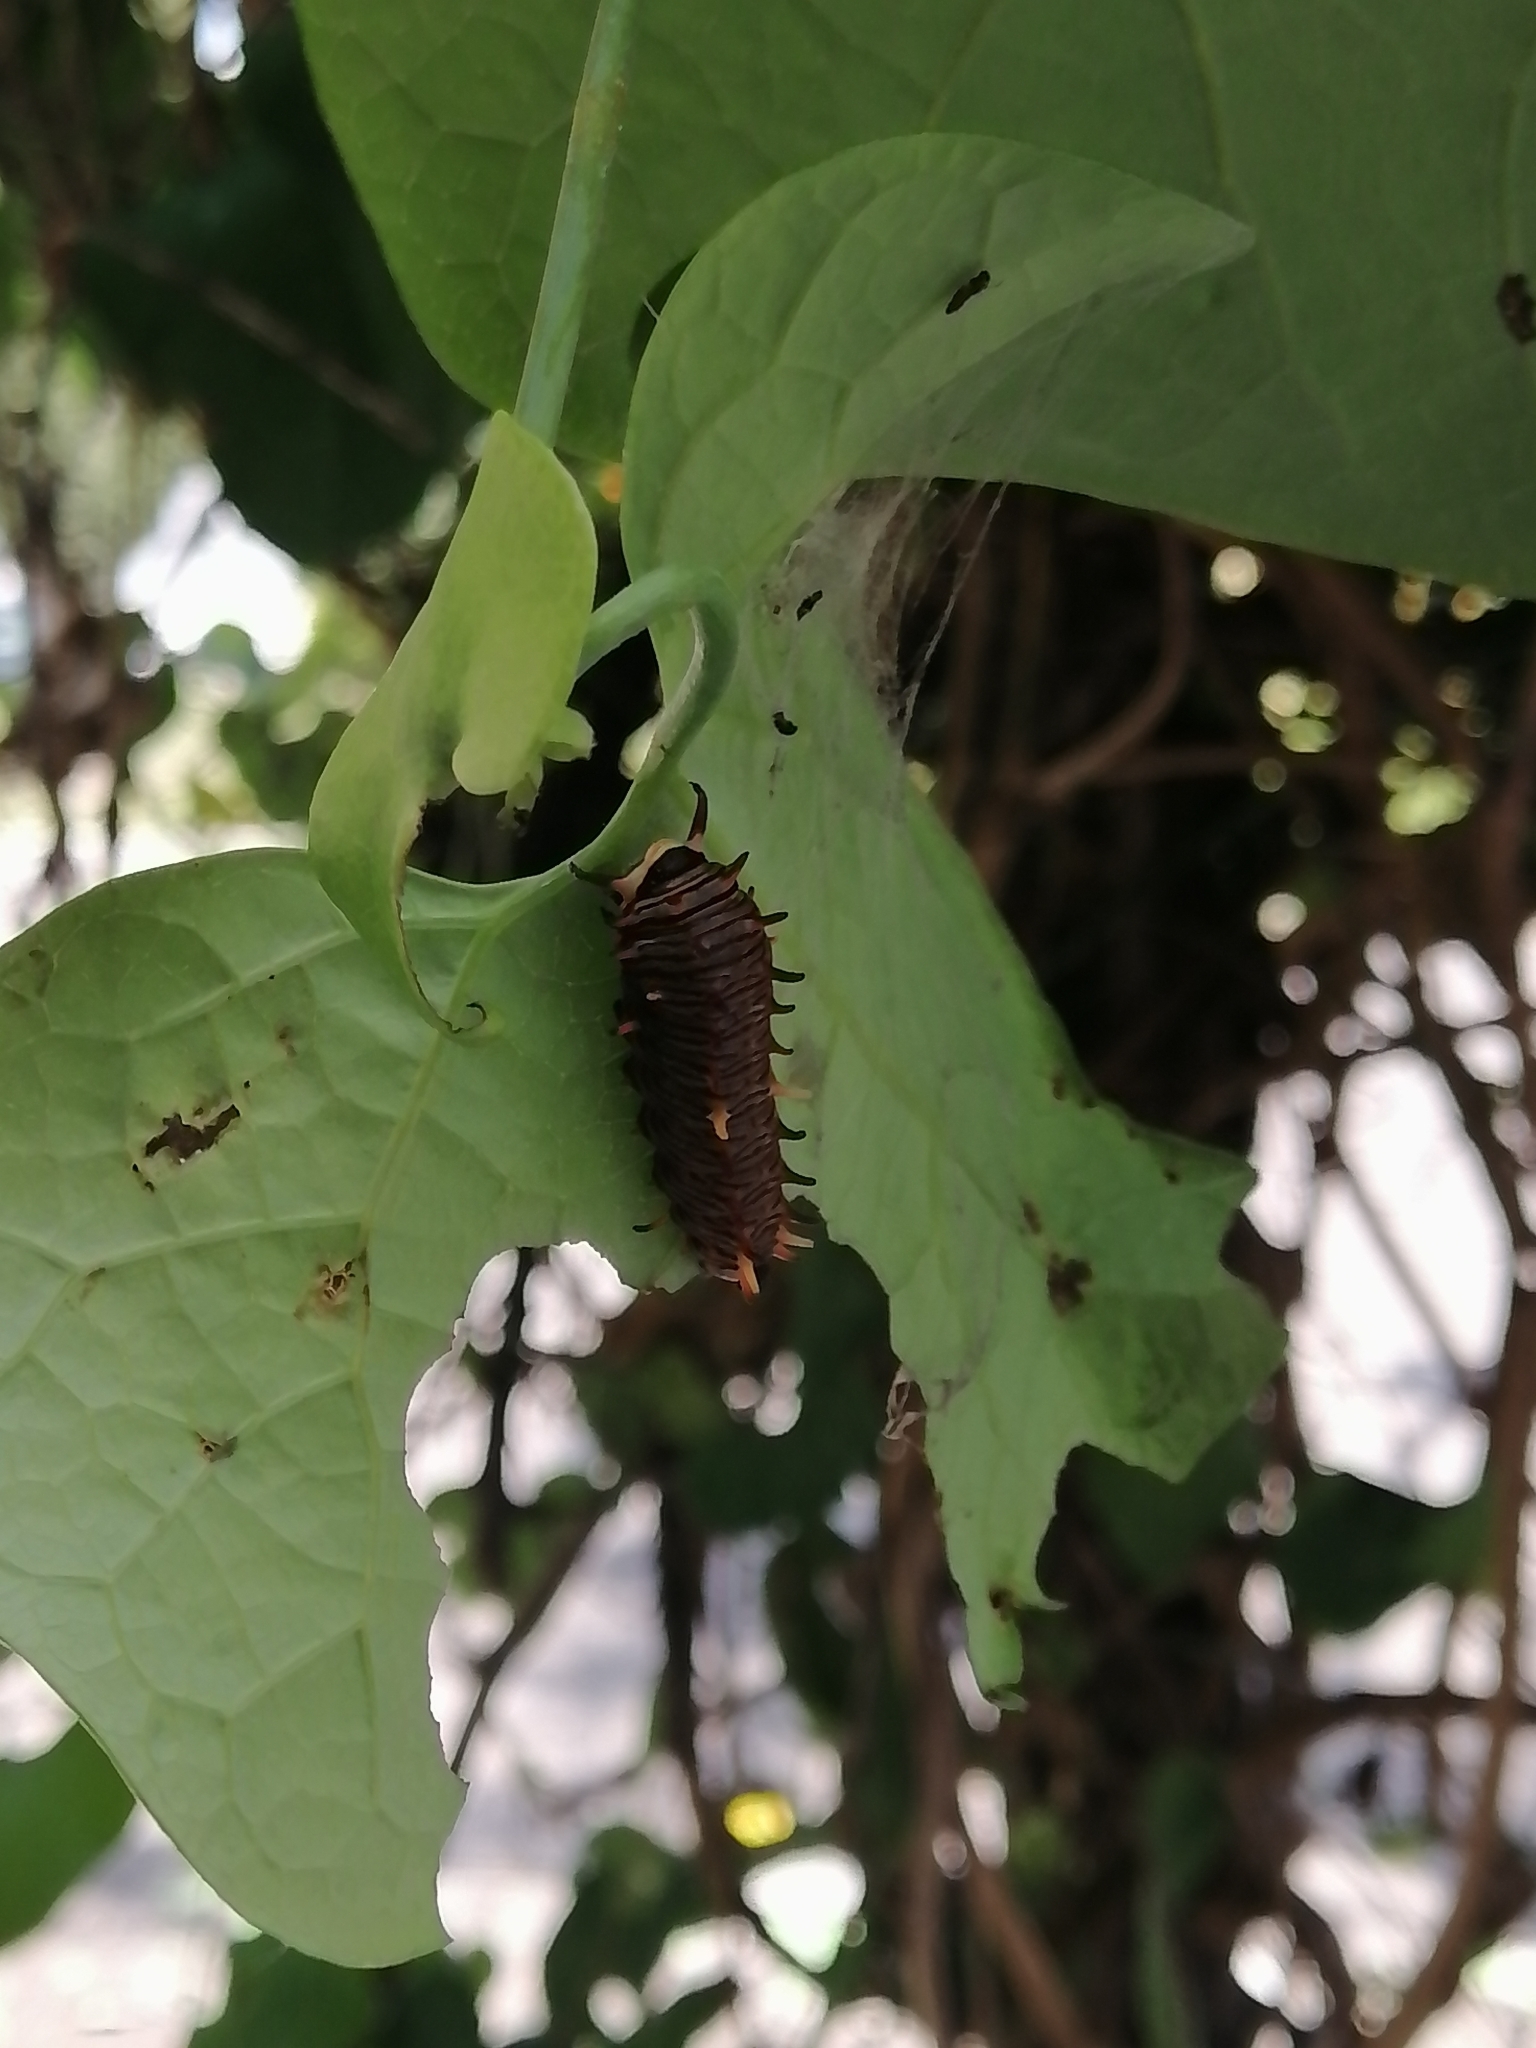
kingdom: Animalia
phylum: Arthropoda
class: Insecta
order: Lepidoptera
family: Papilionidae
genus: Battus
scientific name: Battus polydamas
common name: Polydamas swallowtail
